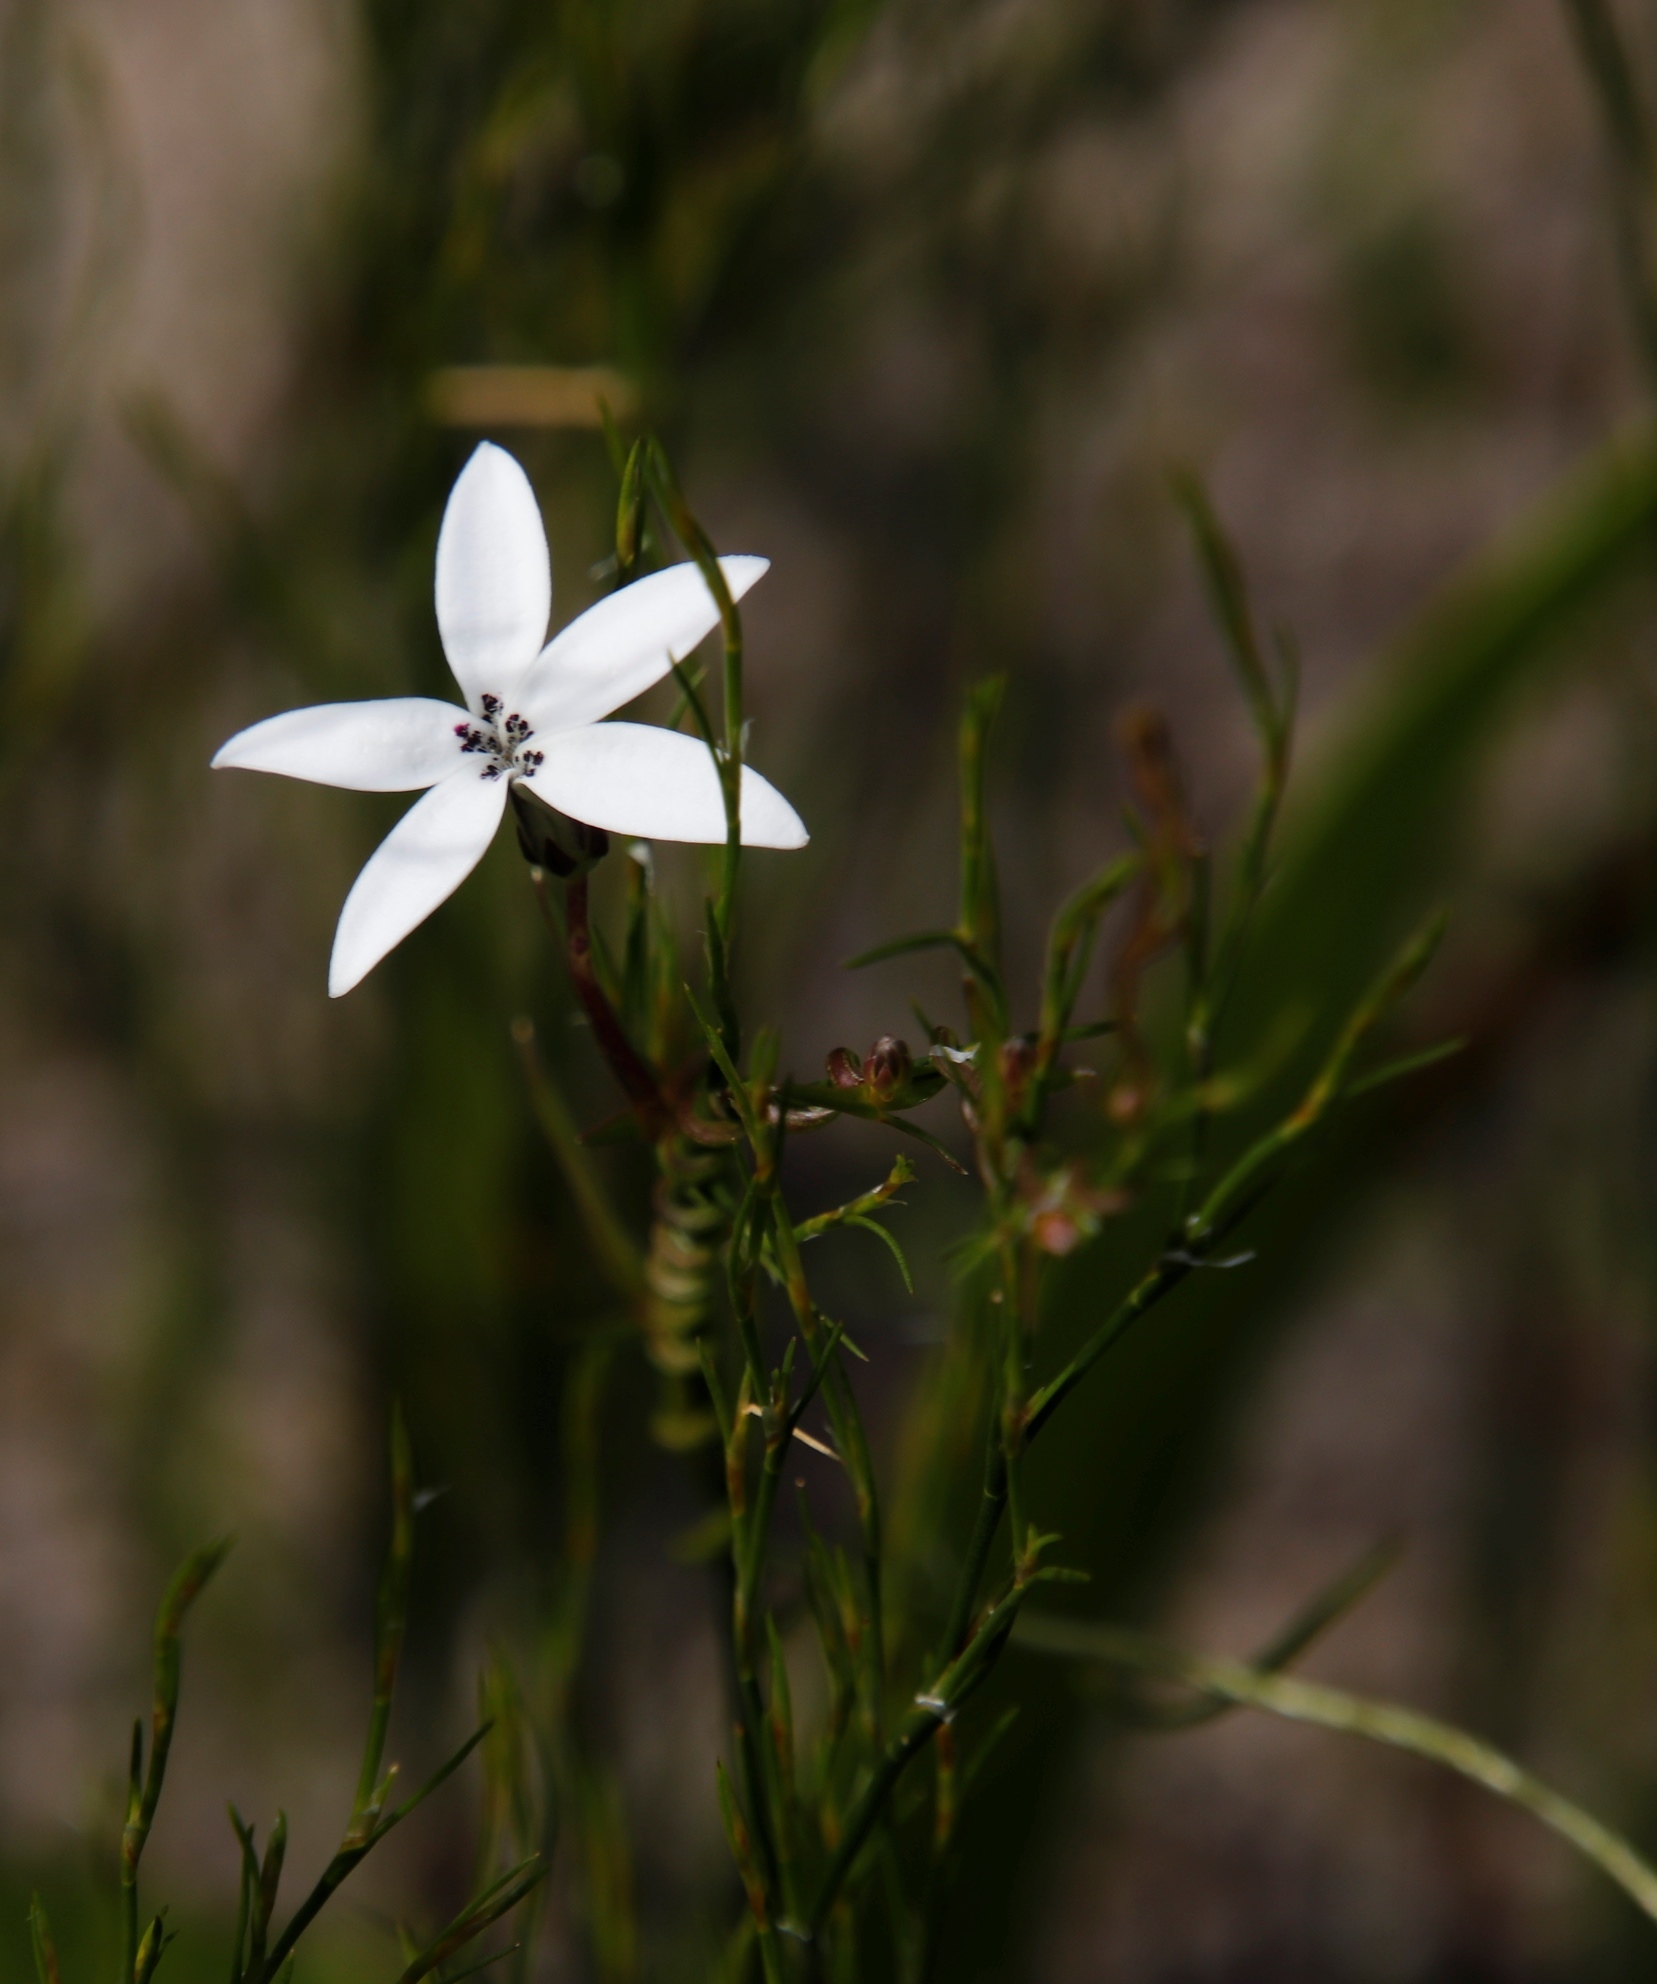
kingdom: Plantae
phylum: Tracheophyta
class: Magnoliopsida
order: Asterales
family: Campanulaceae
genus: Cyphia
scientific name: Cyphia volubilis
